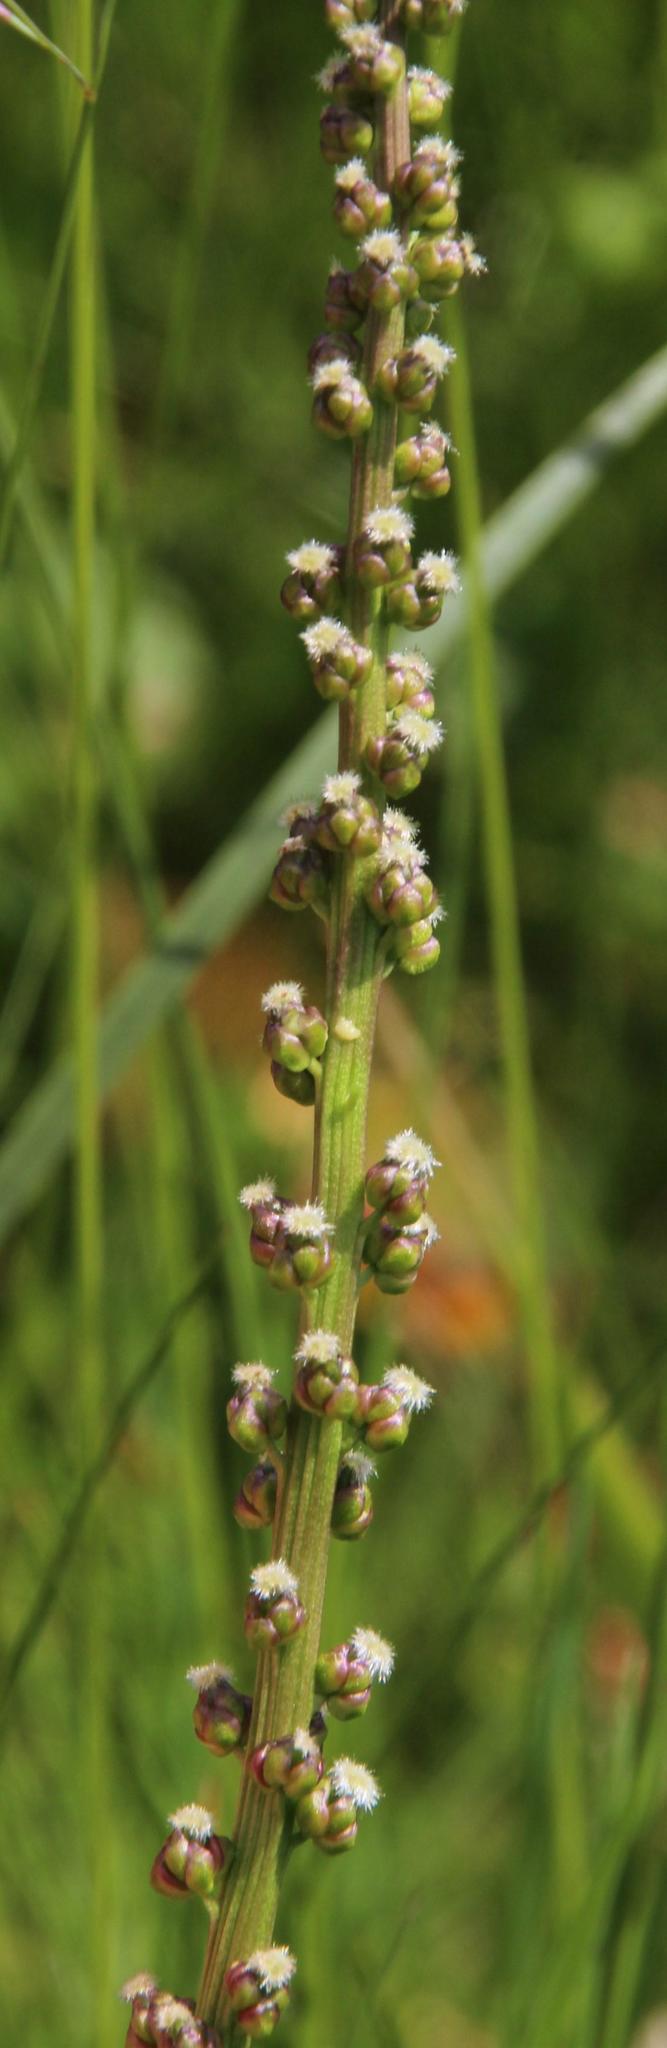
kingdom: Plantae
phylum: Tracheophyta
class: Liliopsida
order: Alismatales
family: Juncaginaceae
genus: Triglochin
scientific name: Triglochin maritima
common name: Sea arrowgrass
